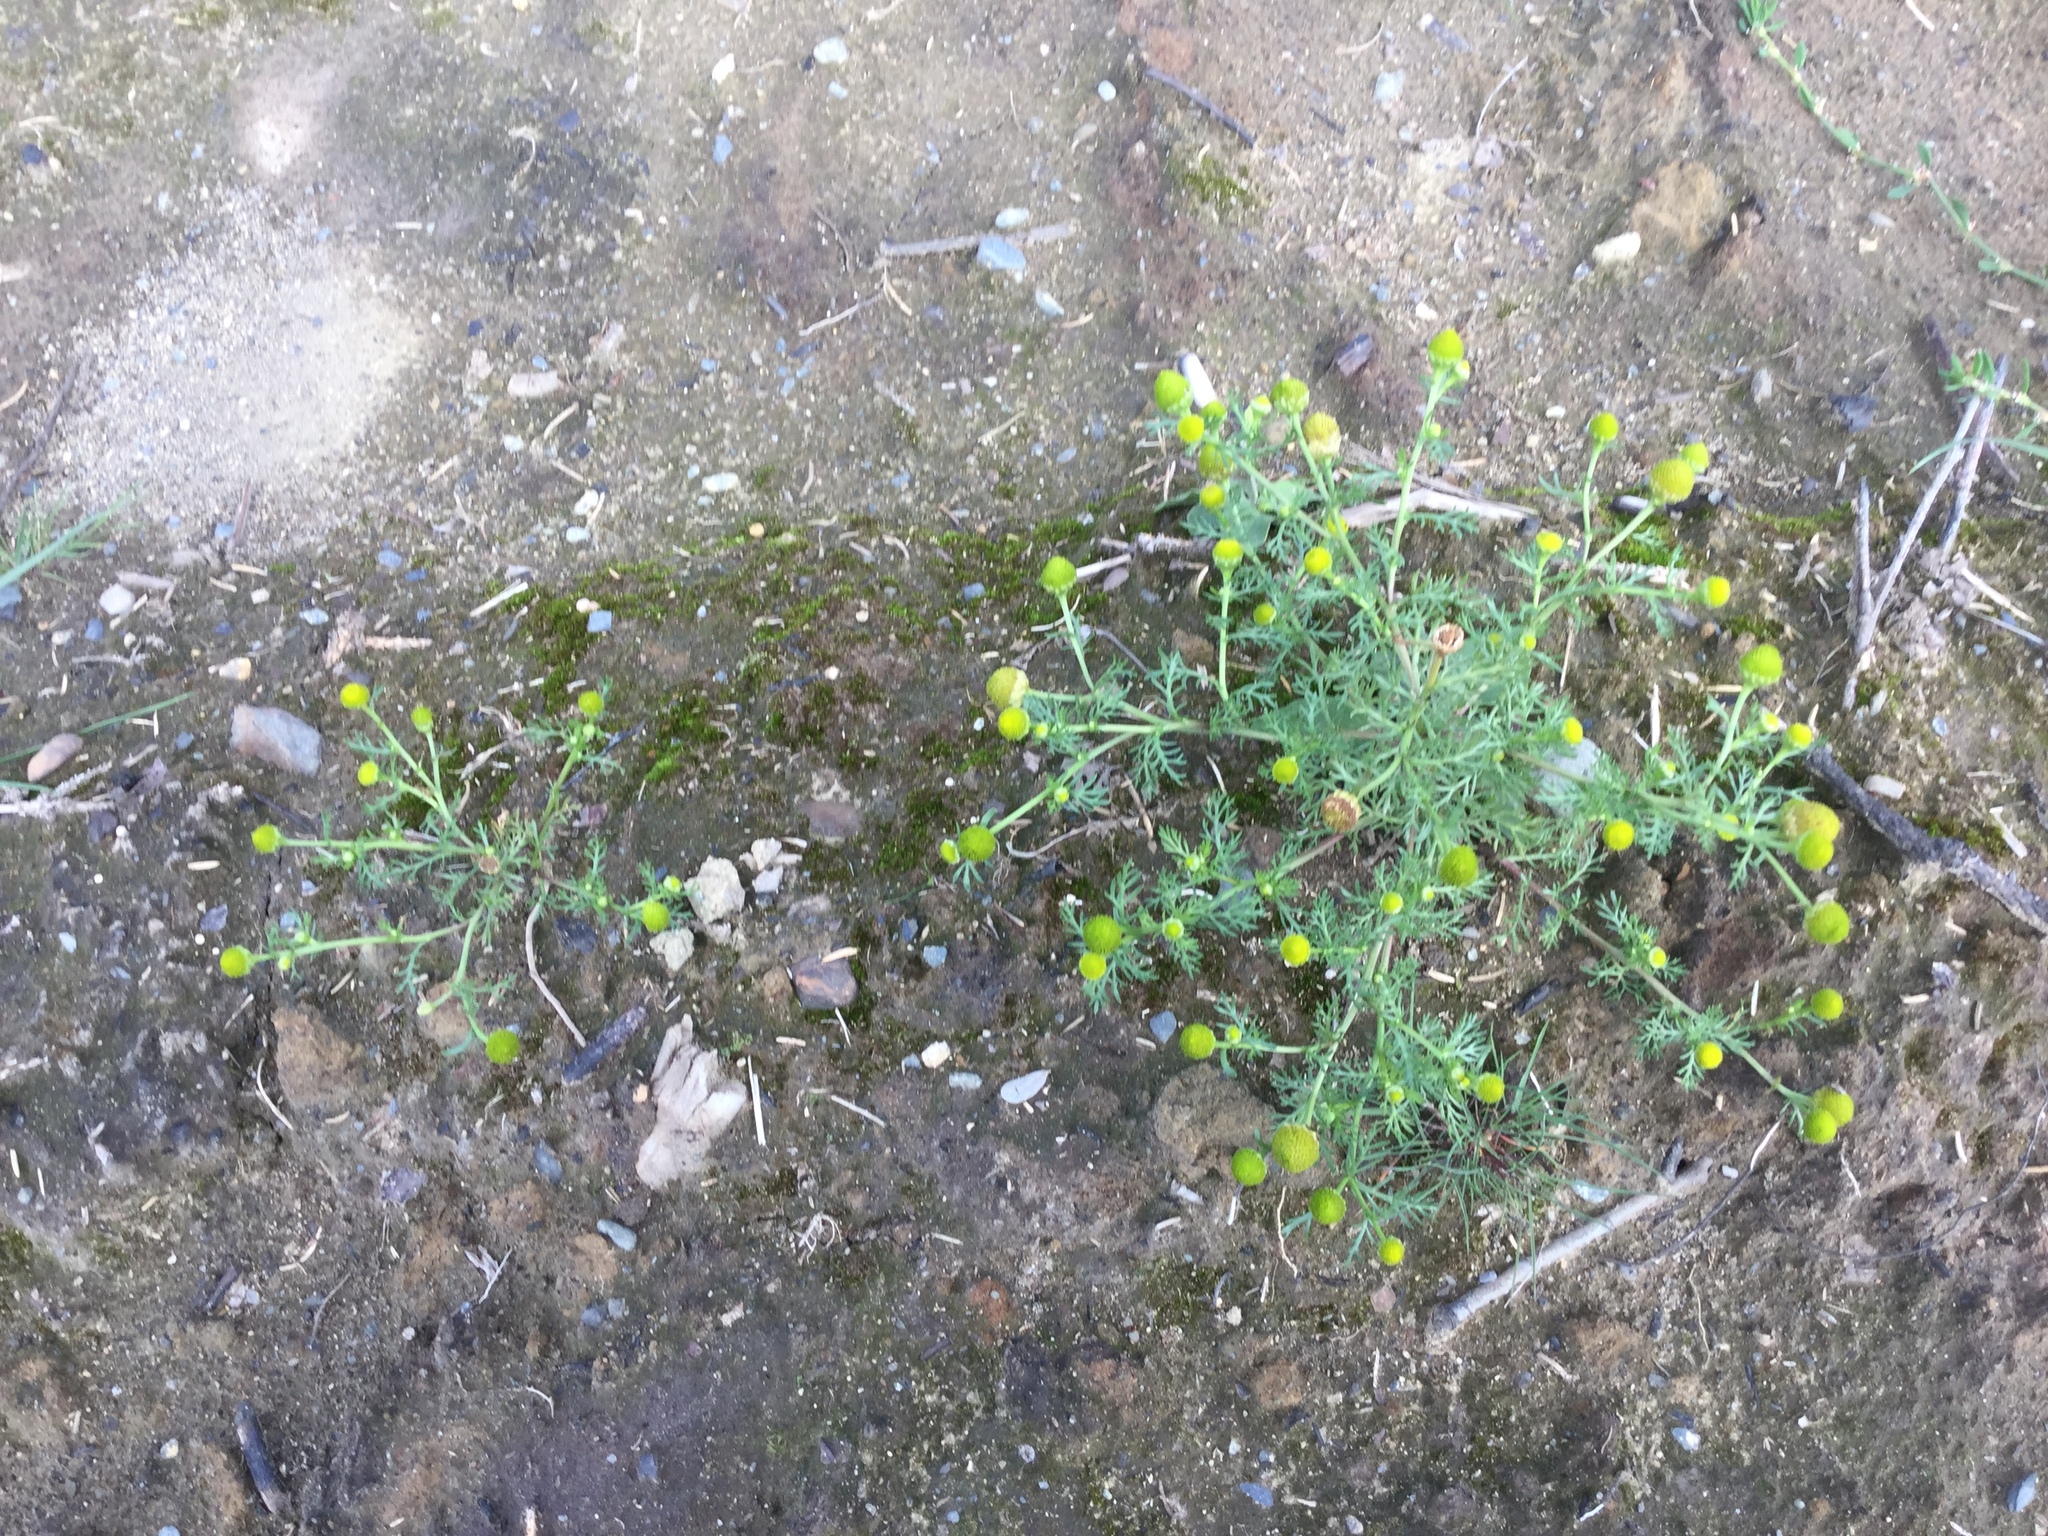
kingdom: Plantae
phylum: Tracheophyta
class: Magnoliopsida
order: Asterales
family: Asteraceae
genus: Matricaria
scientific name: Matricaria discoidea
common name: Disc mayweed
